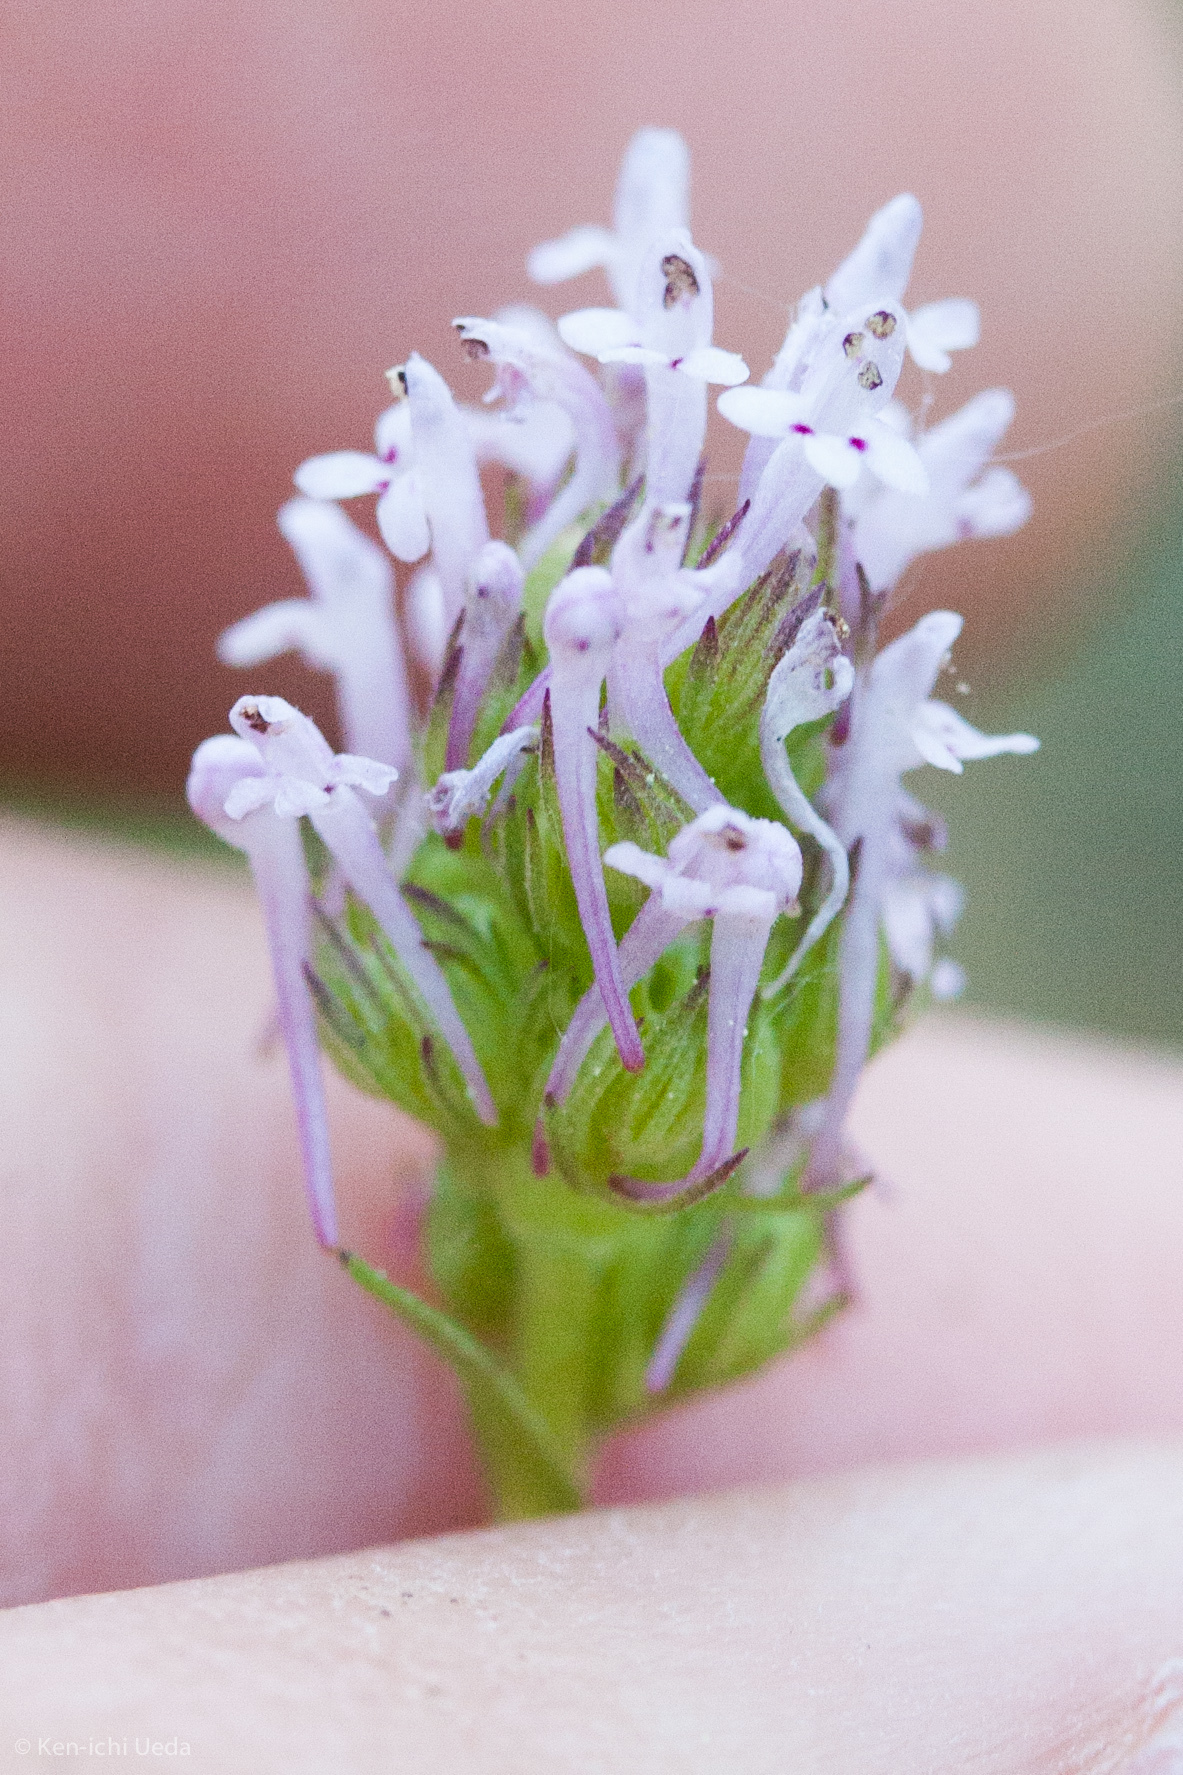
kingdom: Plantae
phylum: Tracheophyta
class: Magnoliopsida
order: Dipsacales
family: Caprifoliaceae
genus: Plectritis
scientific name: Plectritis ciliosa
